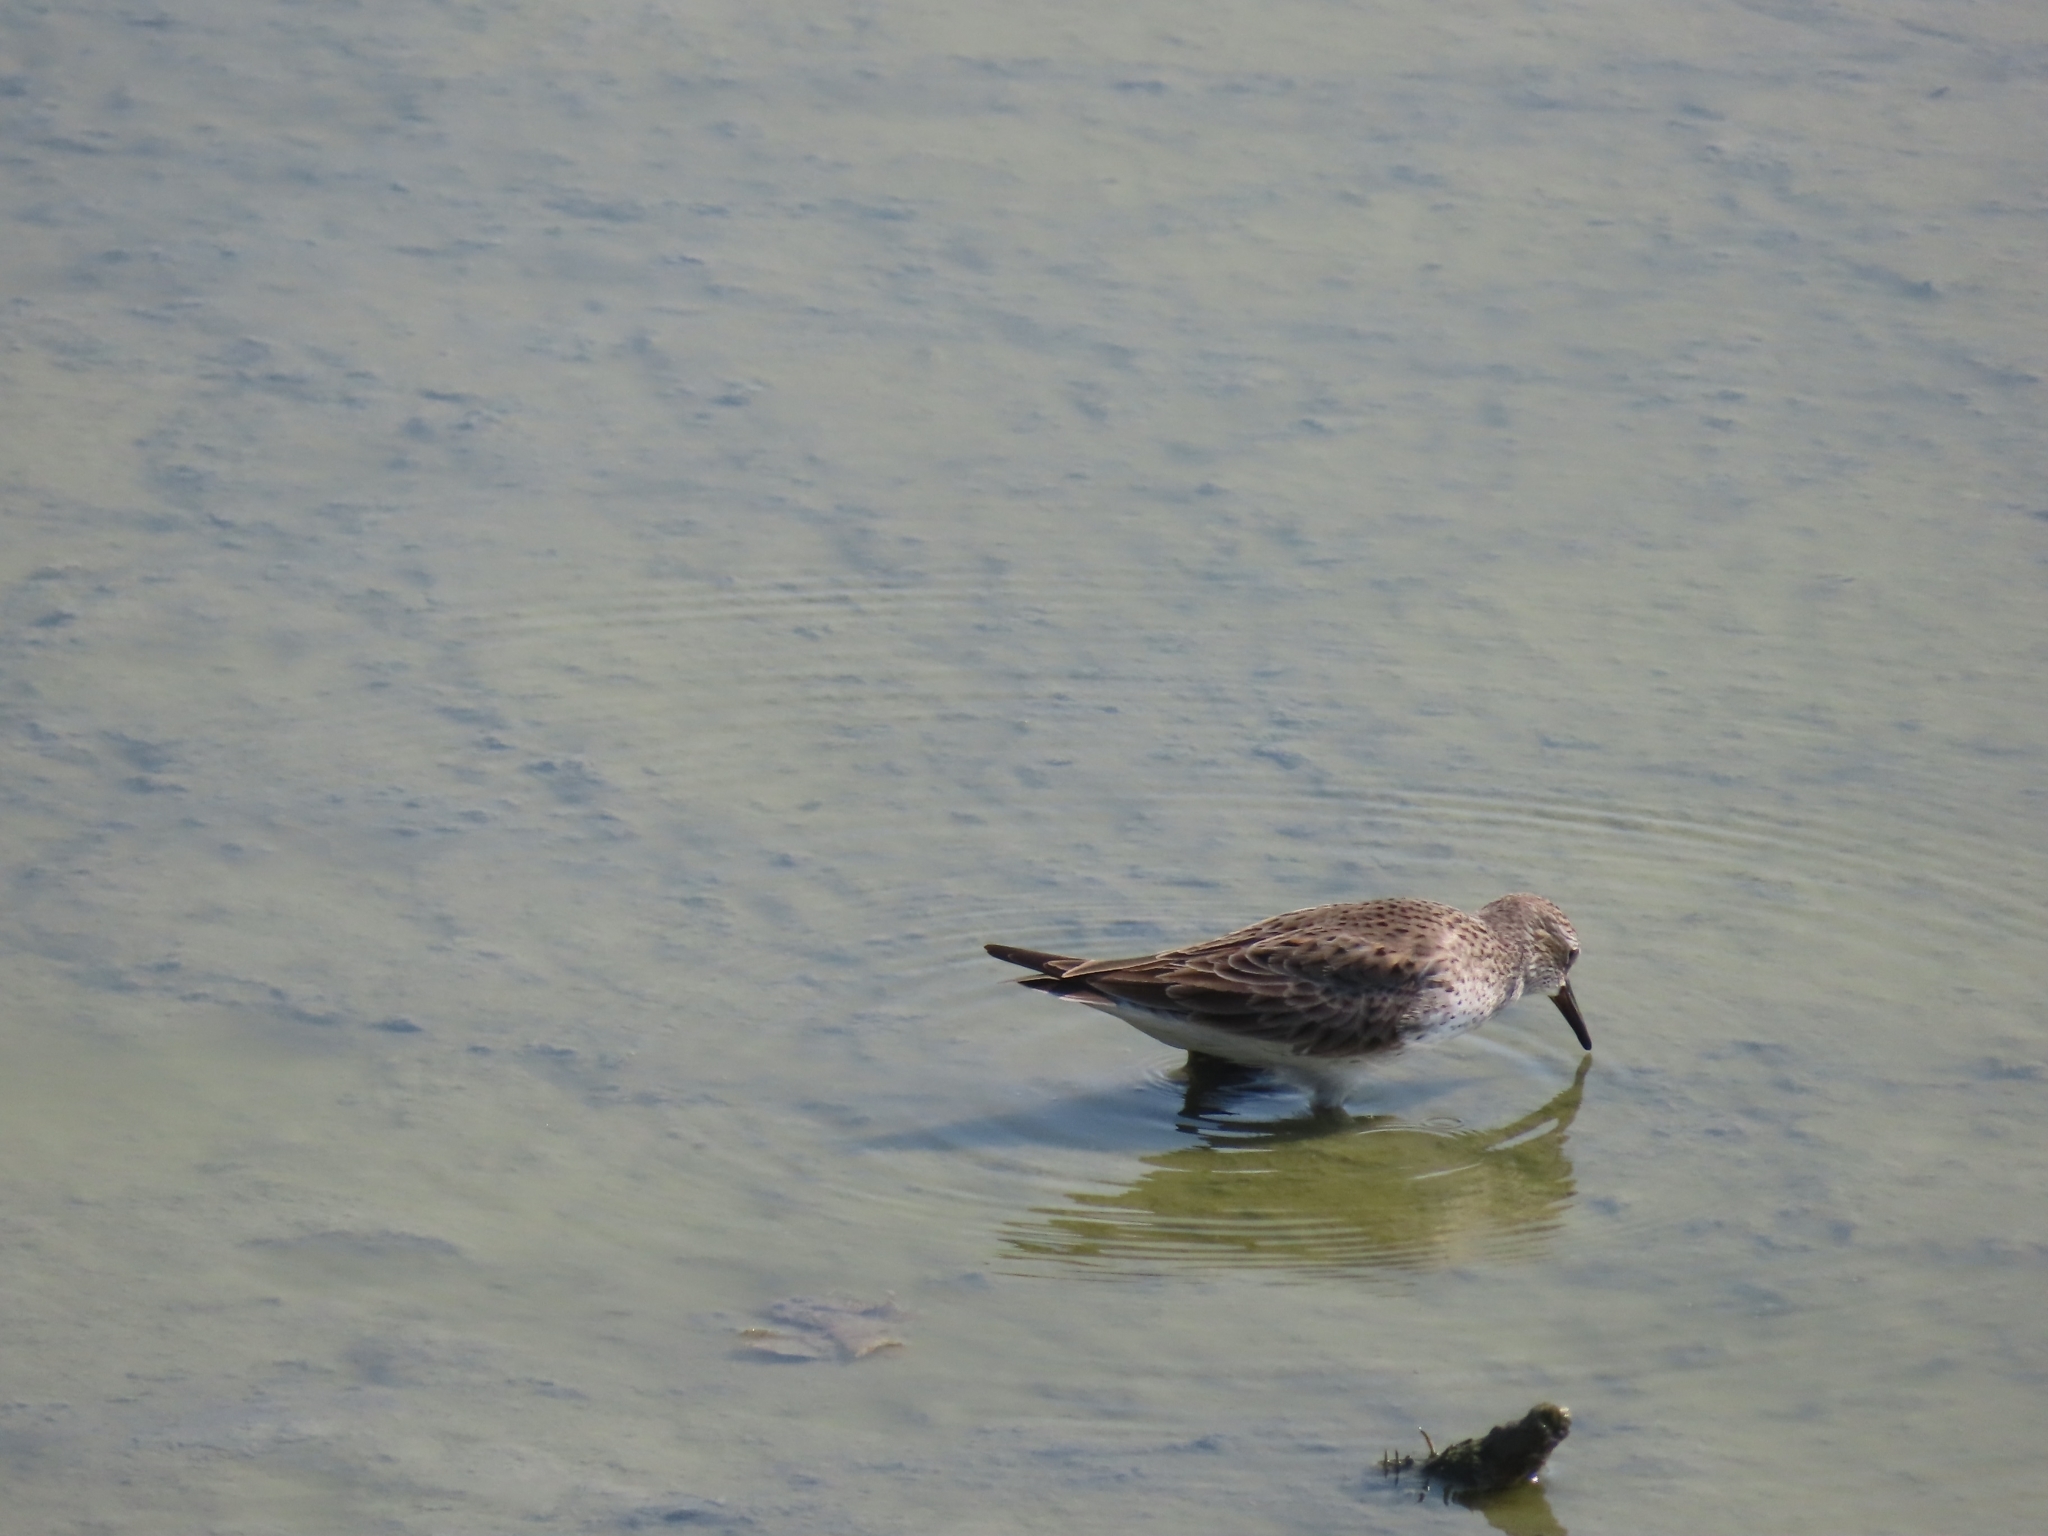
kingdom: Animalia
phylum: Chordata
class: Aves
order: Charadriiformes
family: Scolopacidae
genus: Calidris
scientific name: Calidris fuscicollis
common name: White-rumped sandpiper
